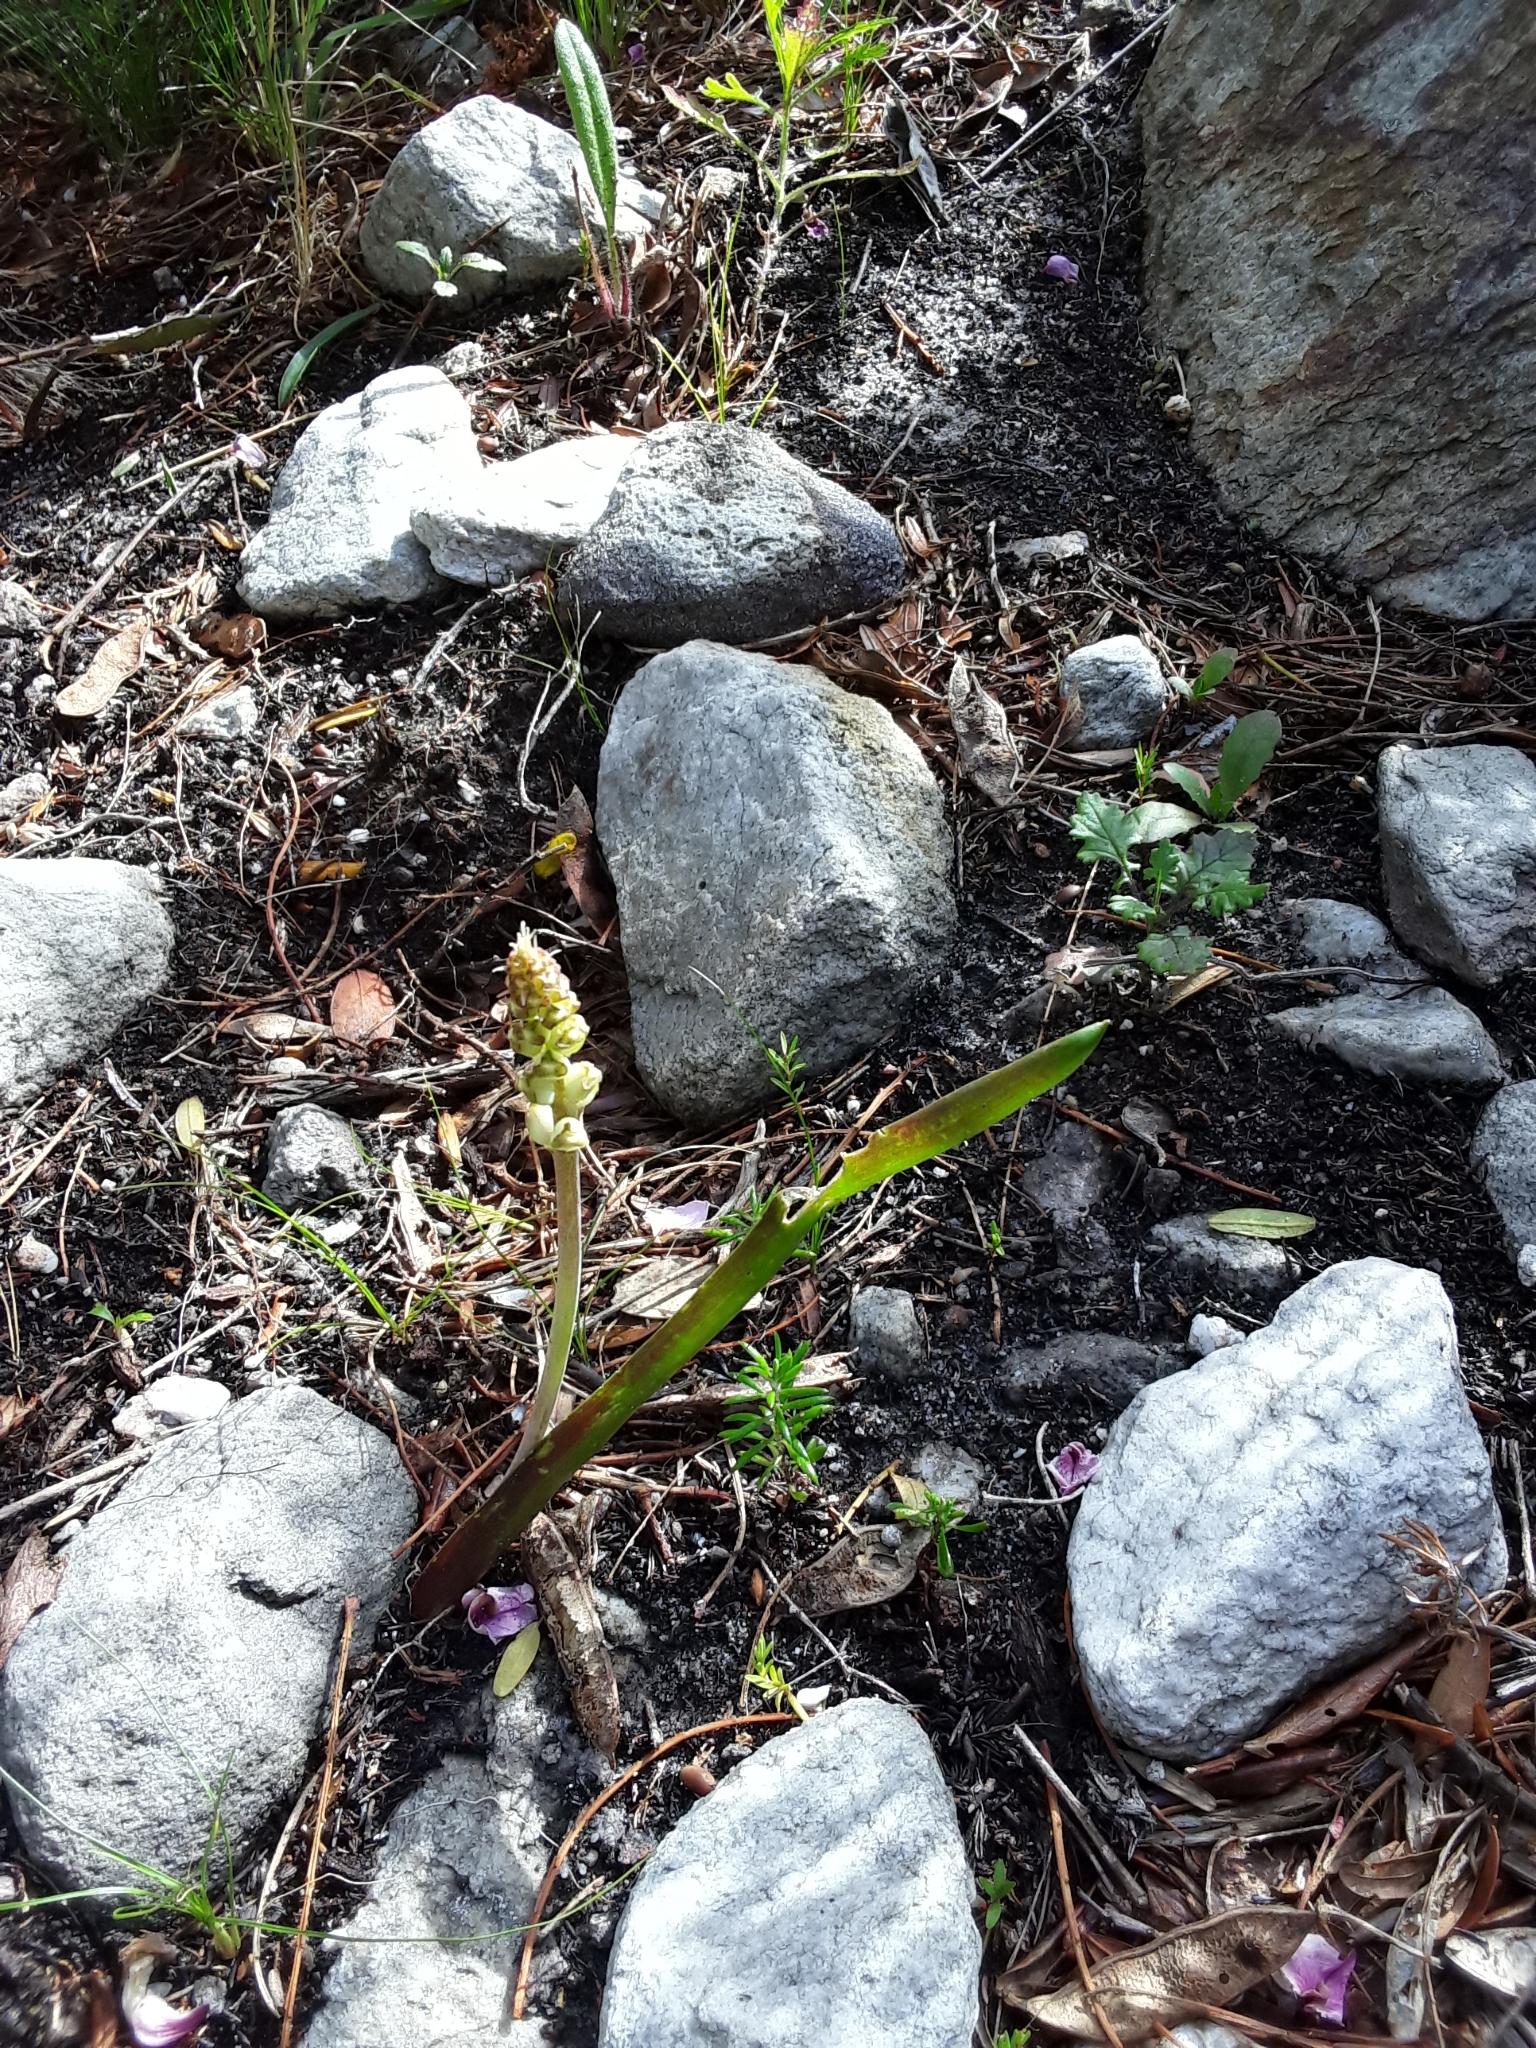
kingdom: Plantae
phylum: Tracheophyta
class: Liliopsida
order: Asparagales
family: Asparagaceae
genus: Lachenalia
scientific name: Lachenalia peersii
